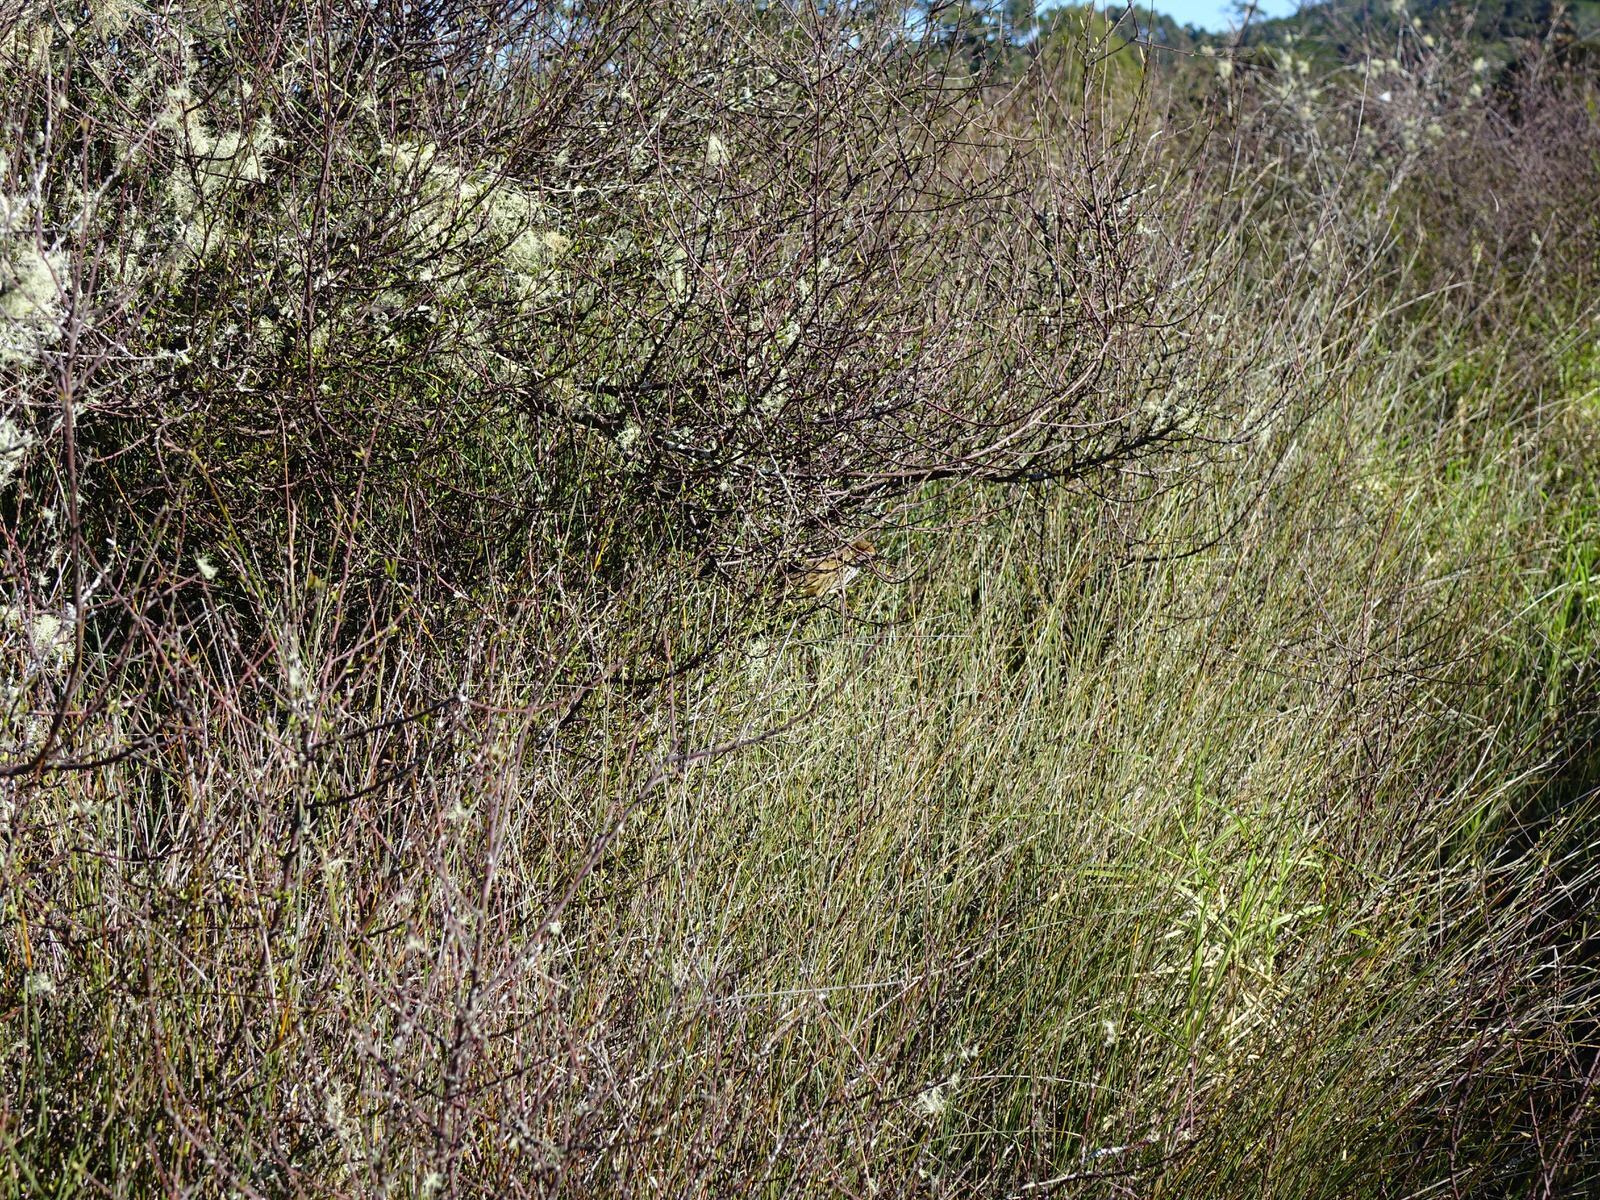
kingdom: Animalia
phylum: Chordata
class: Aves
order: Passeriformes
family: Locustellidae
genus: Megalurus
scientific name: Megalurus punctatus
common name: New zealand fernbird
